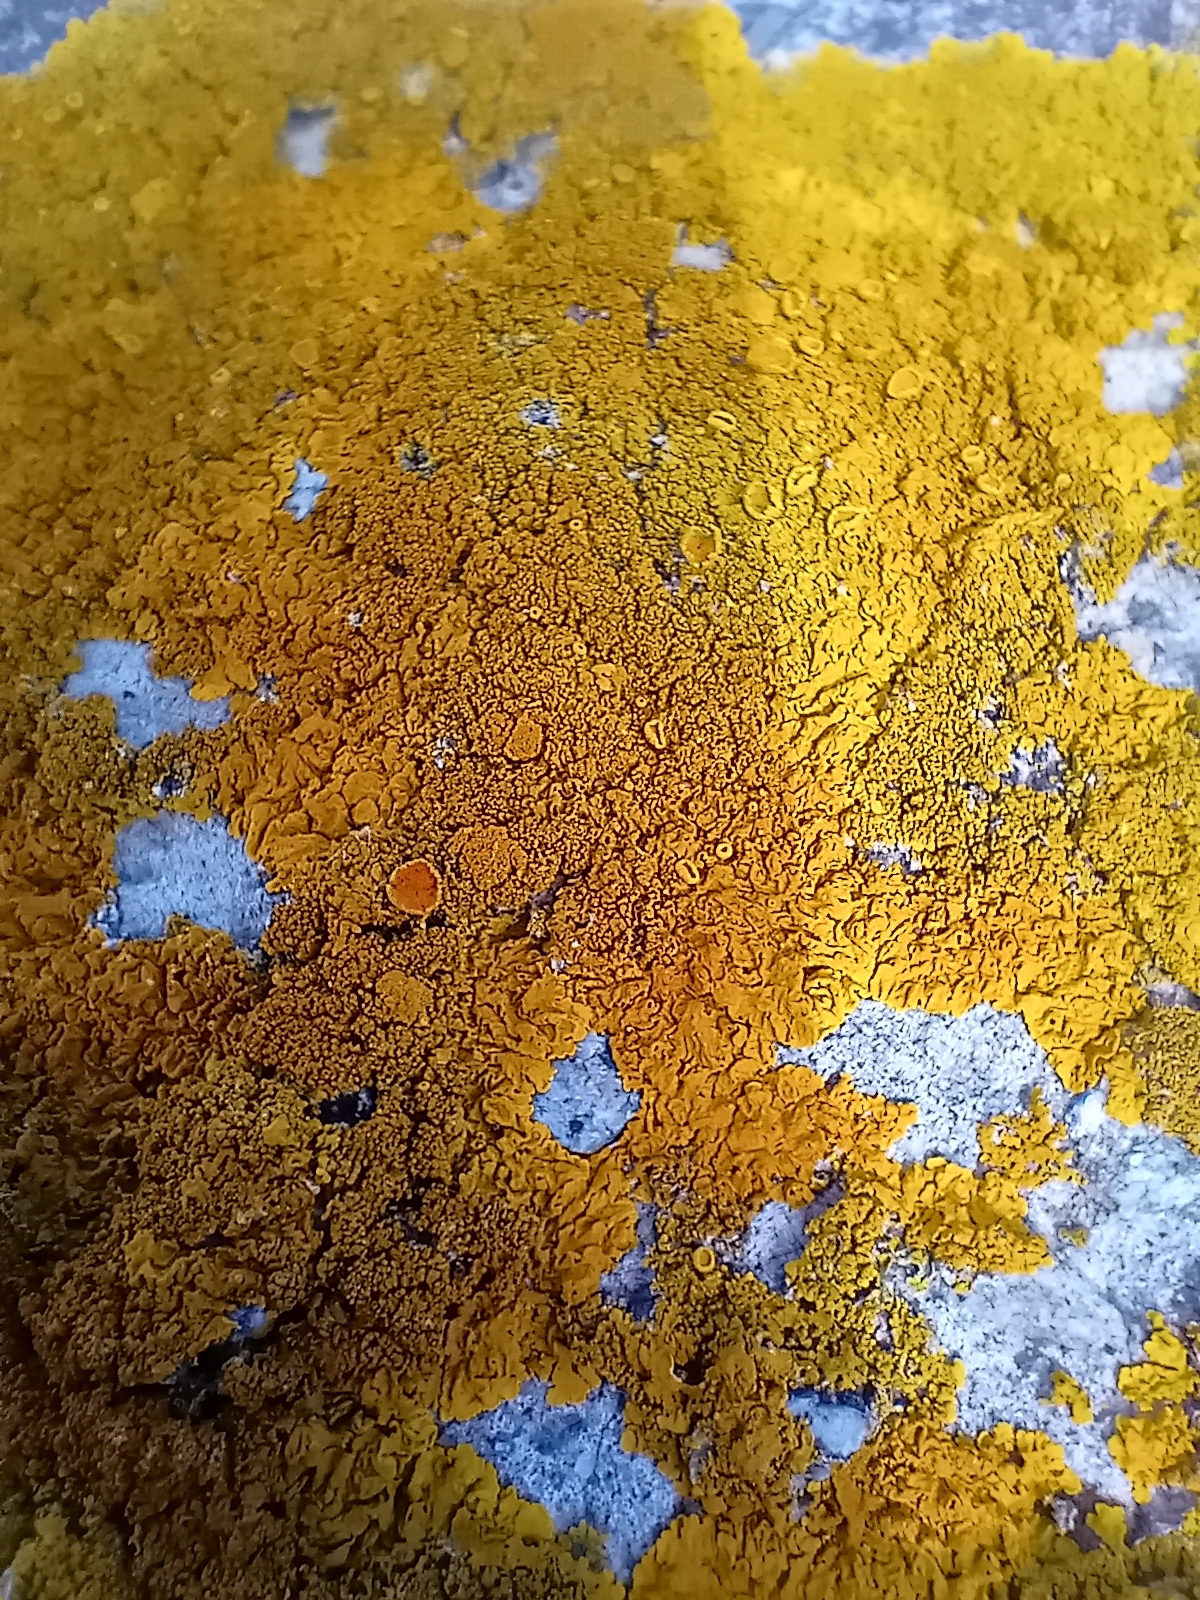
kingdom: Fungi
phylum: Ascomycota
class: Lecanoromycetes
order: Teloschistales
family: Teloschistaceae
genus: Xanthoria
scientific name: Xanthoria calcicola
